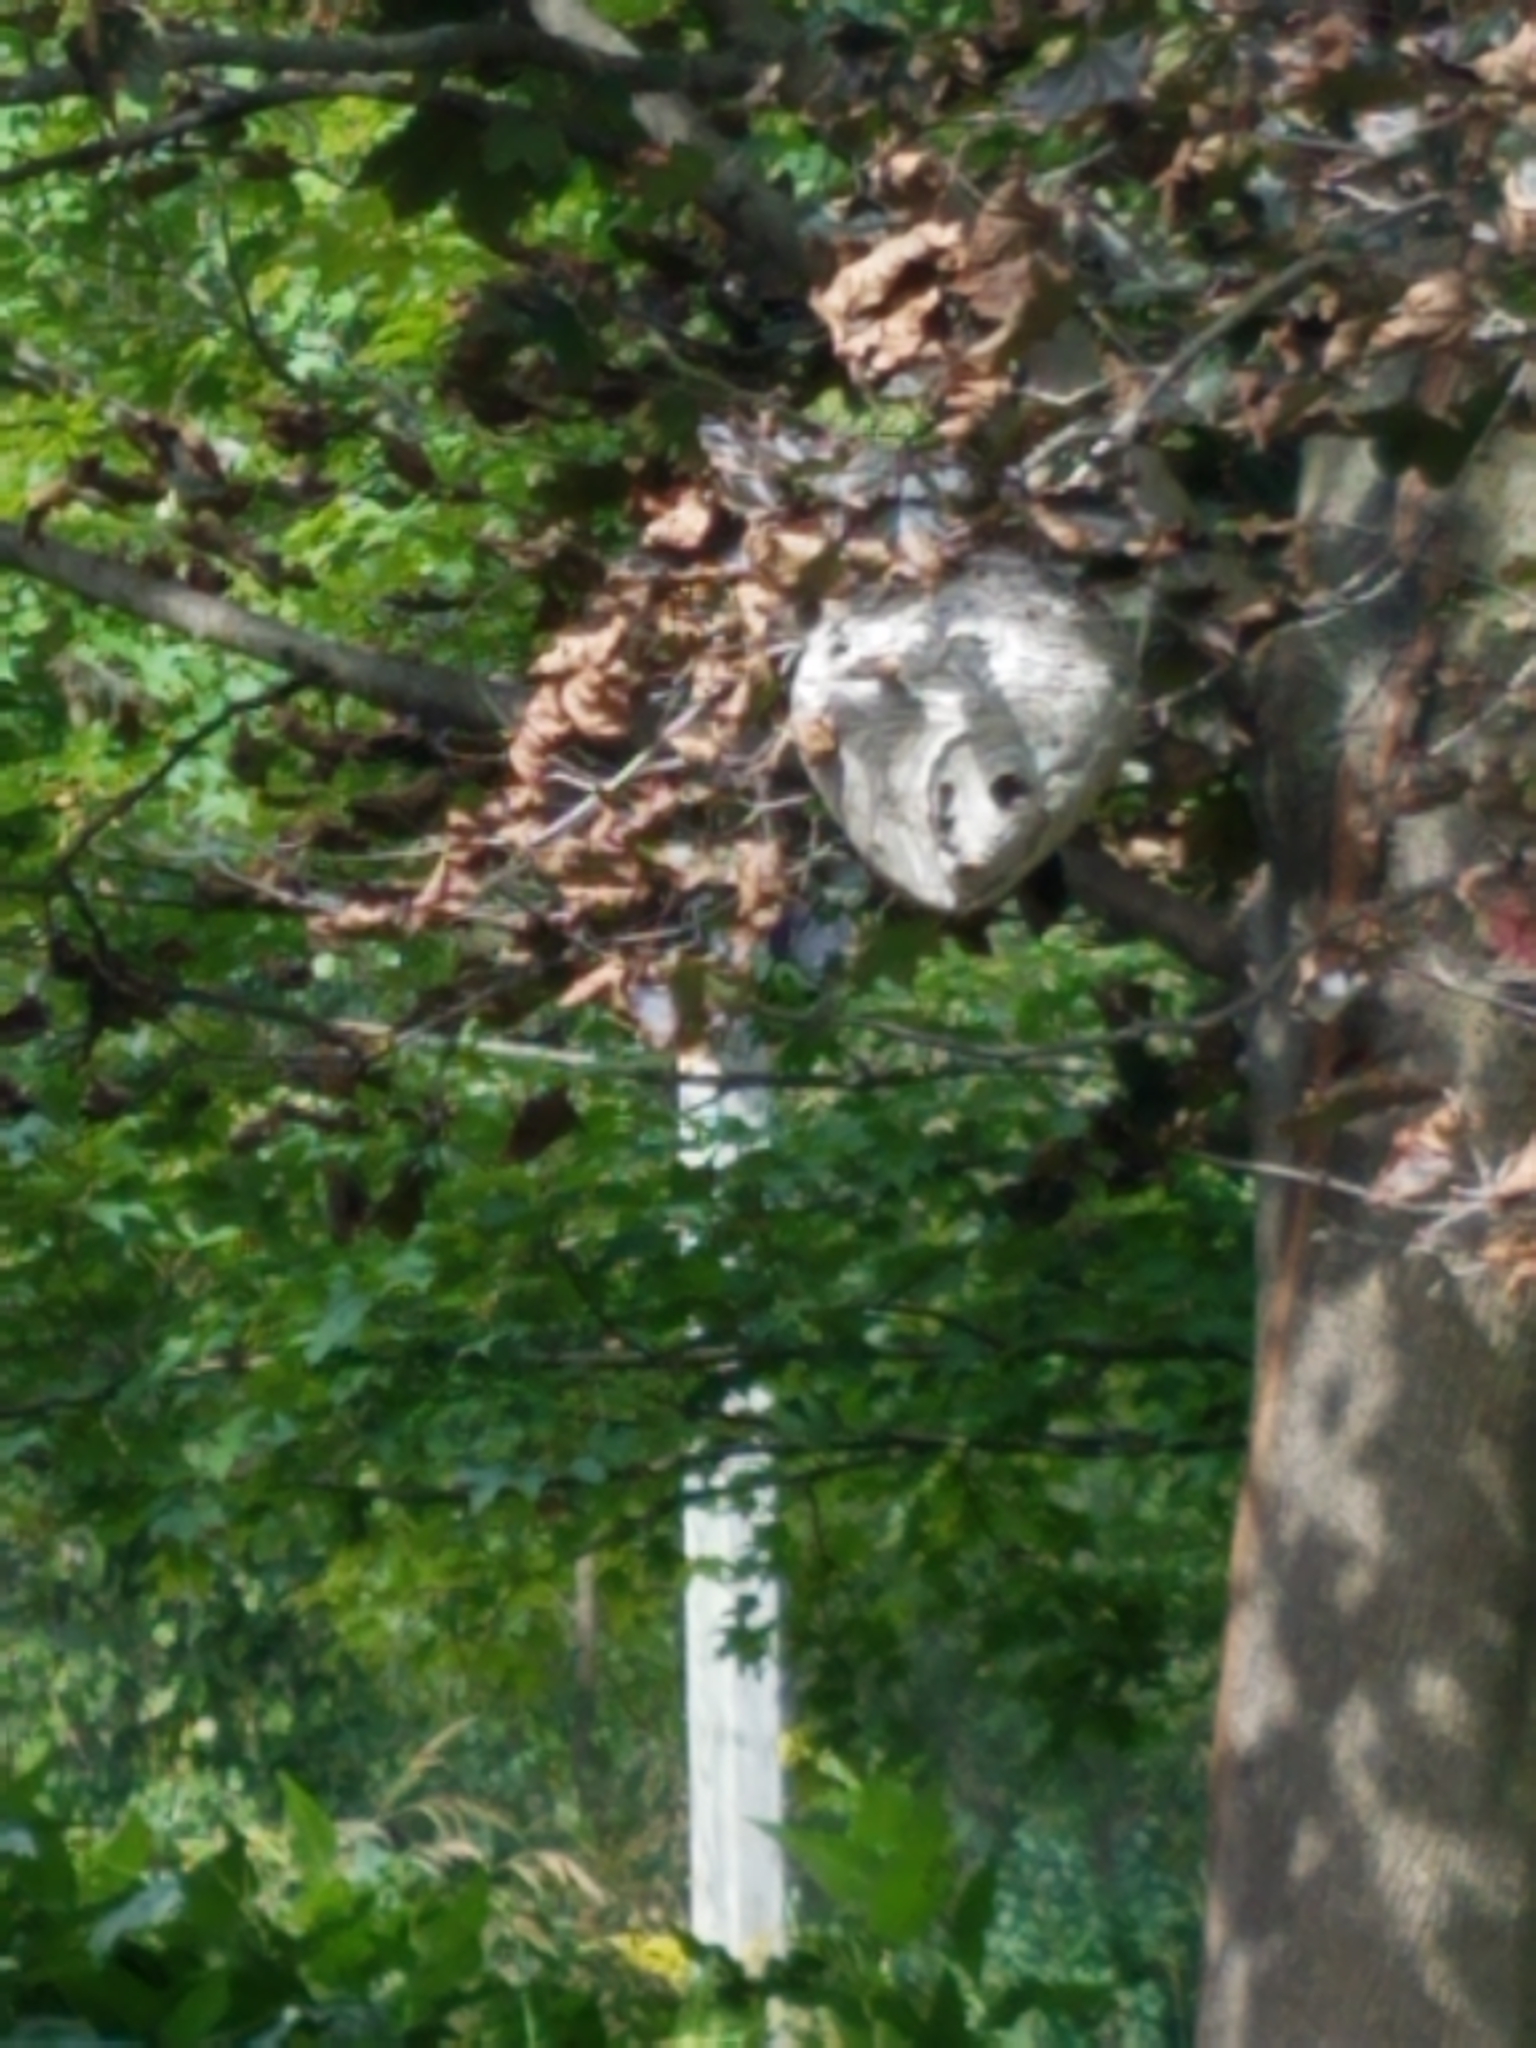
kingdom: Animalia
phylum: Arthropoda
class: Insecta
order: Hymenoptera
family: Vespidae
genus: Dolichovespula
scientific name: Dolichovespula
